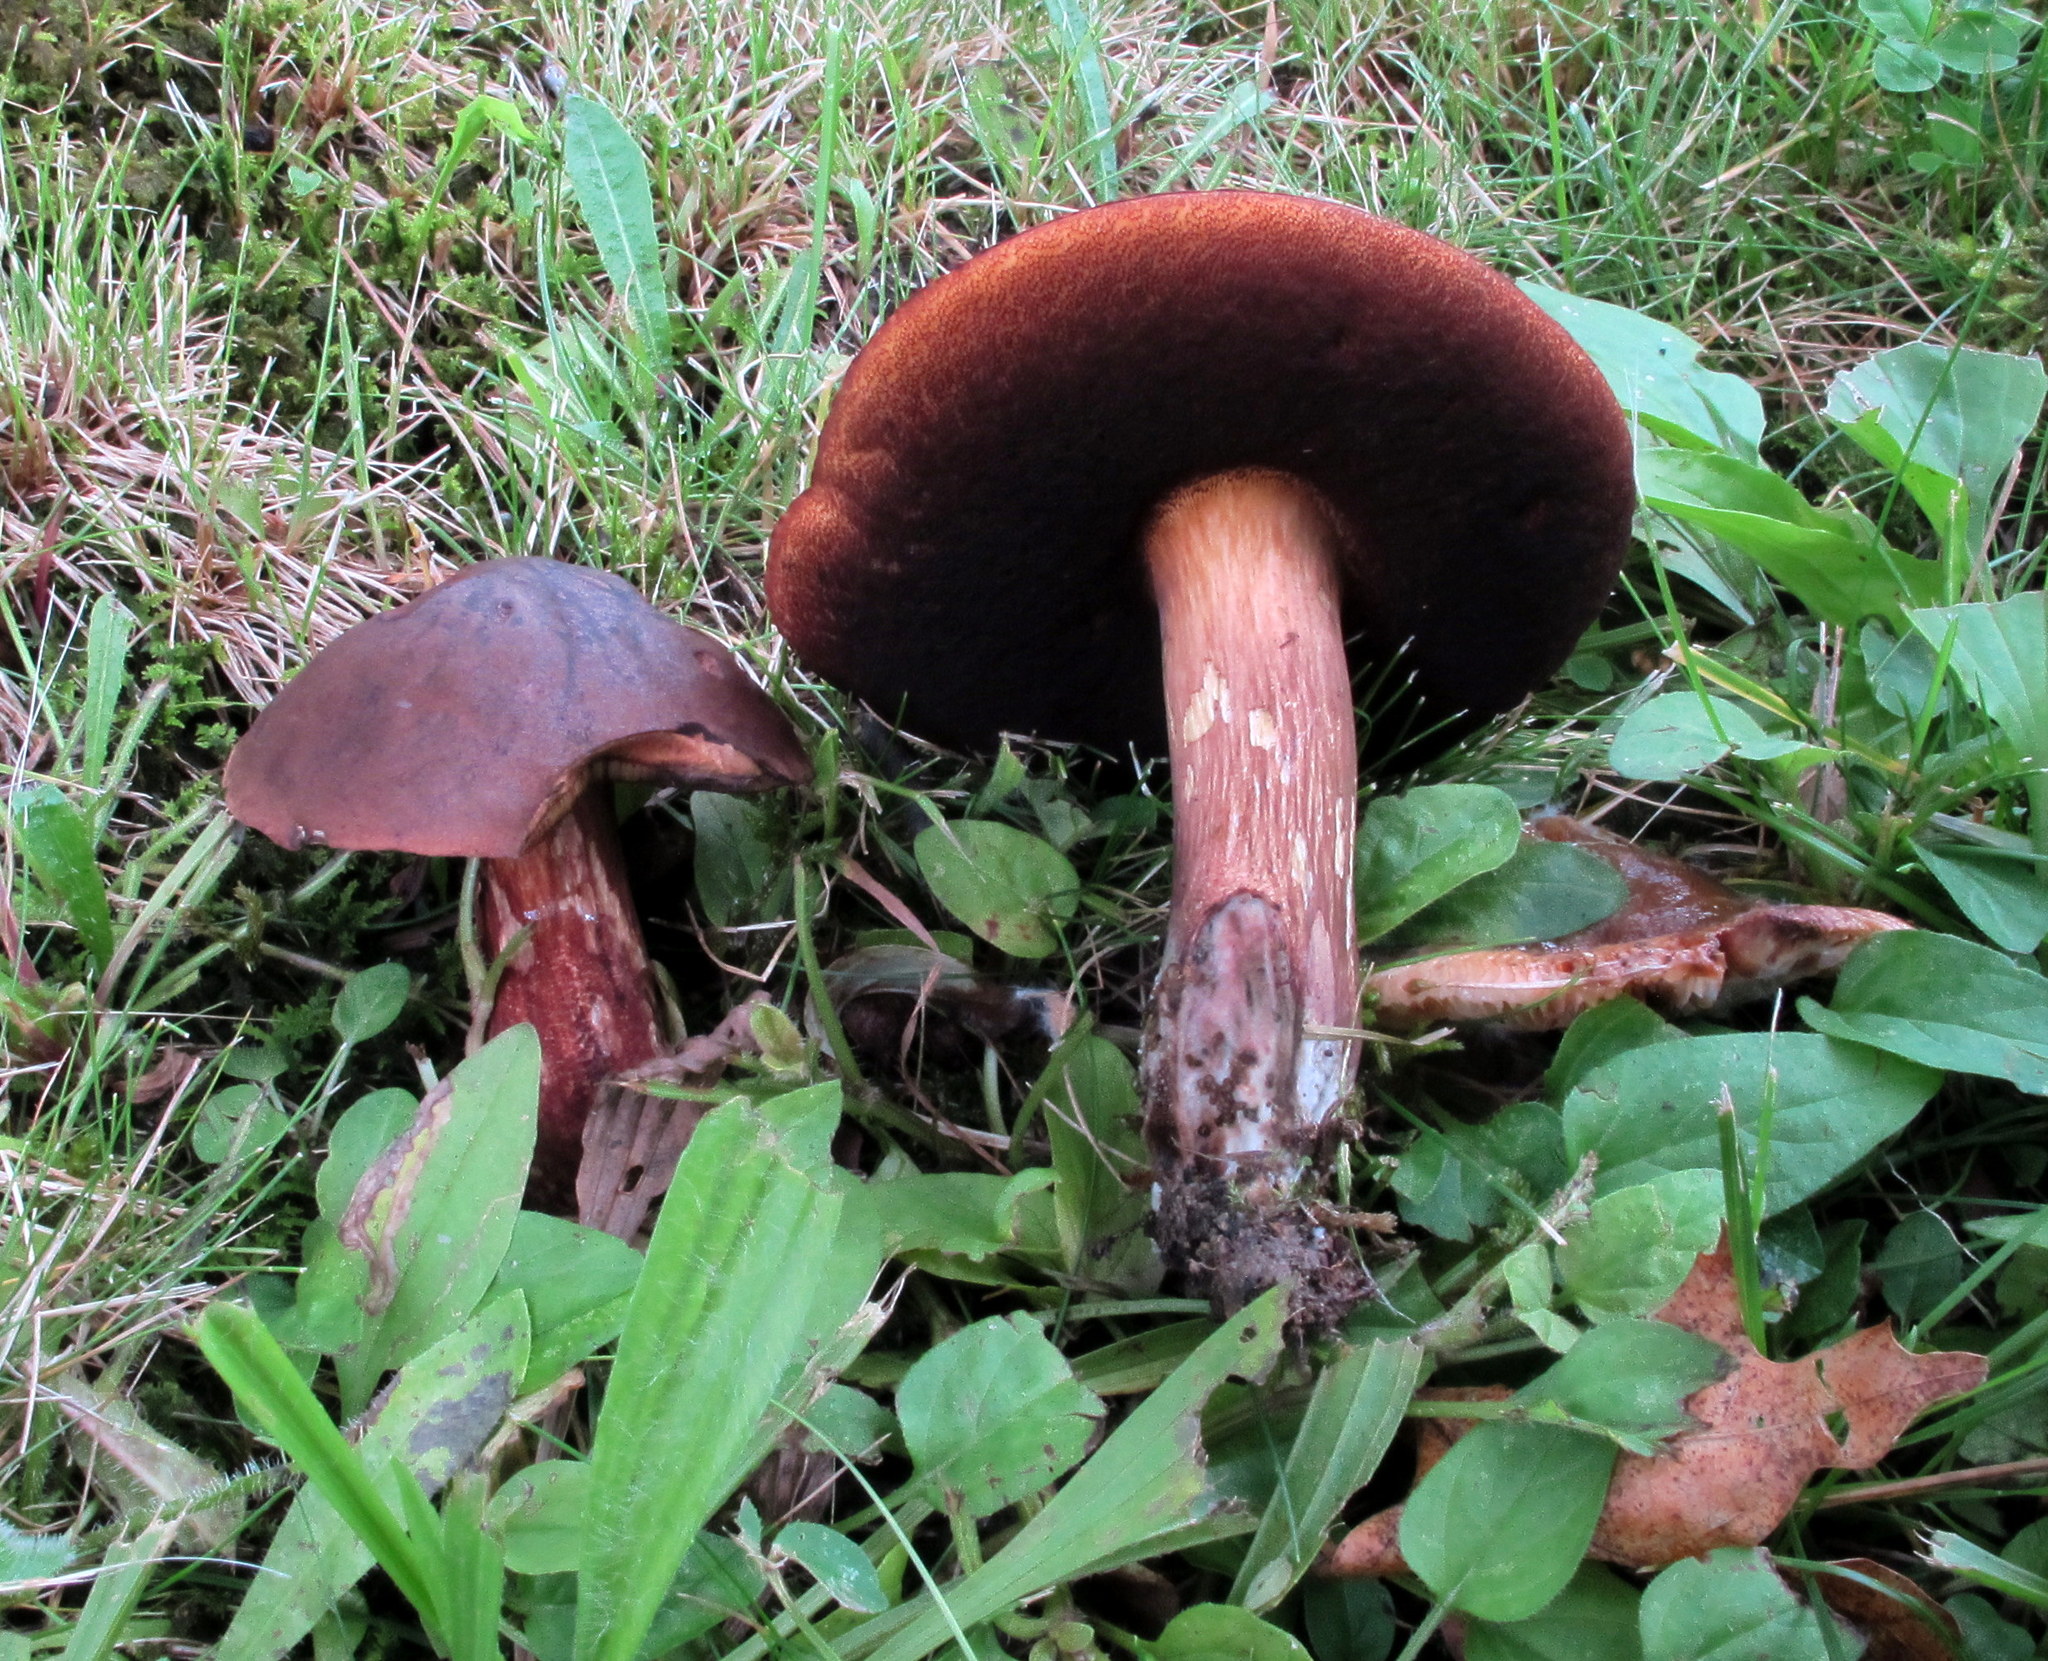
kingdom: Fungi
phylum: Basidiomycota
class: Agaricomycetes
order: Boletales
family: Boletaceae
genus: Boletus
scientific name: Boletus vermiculosus
